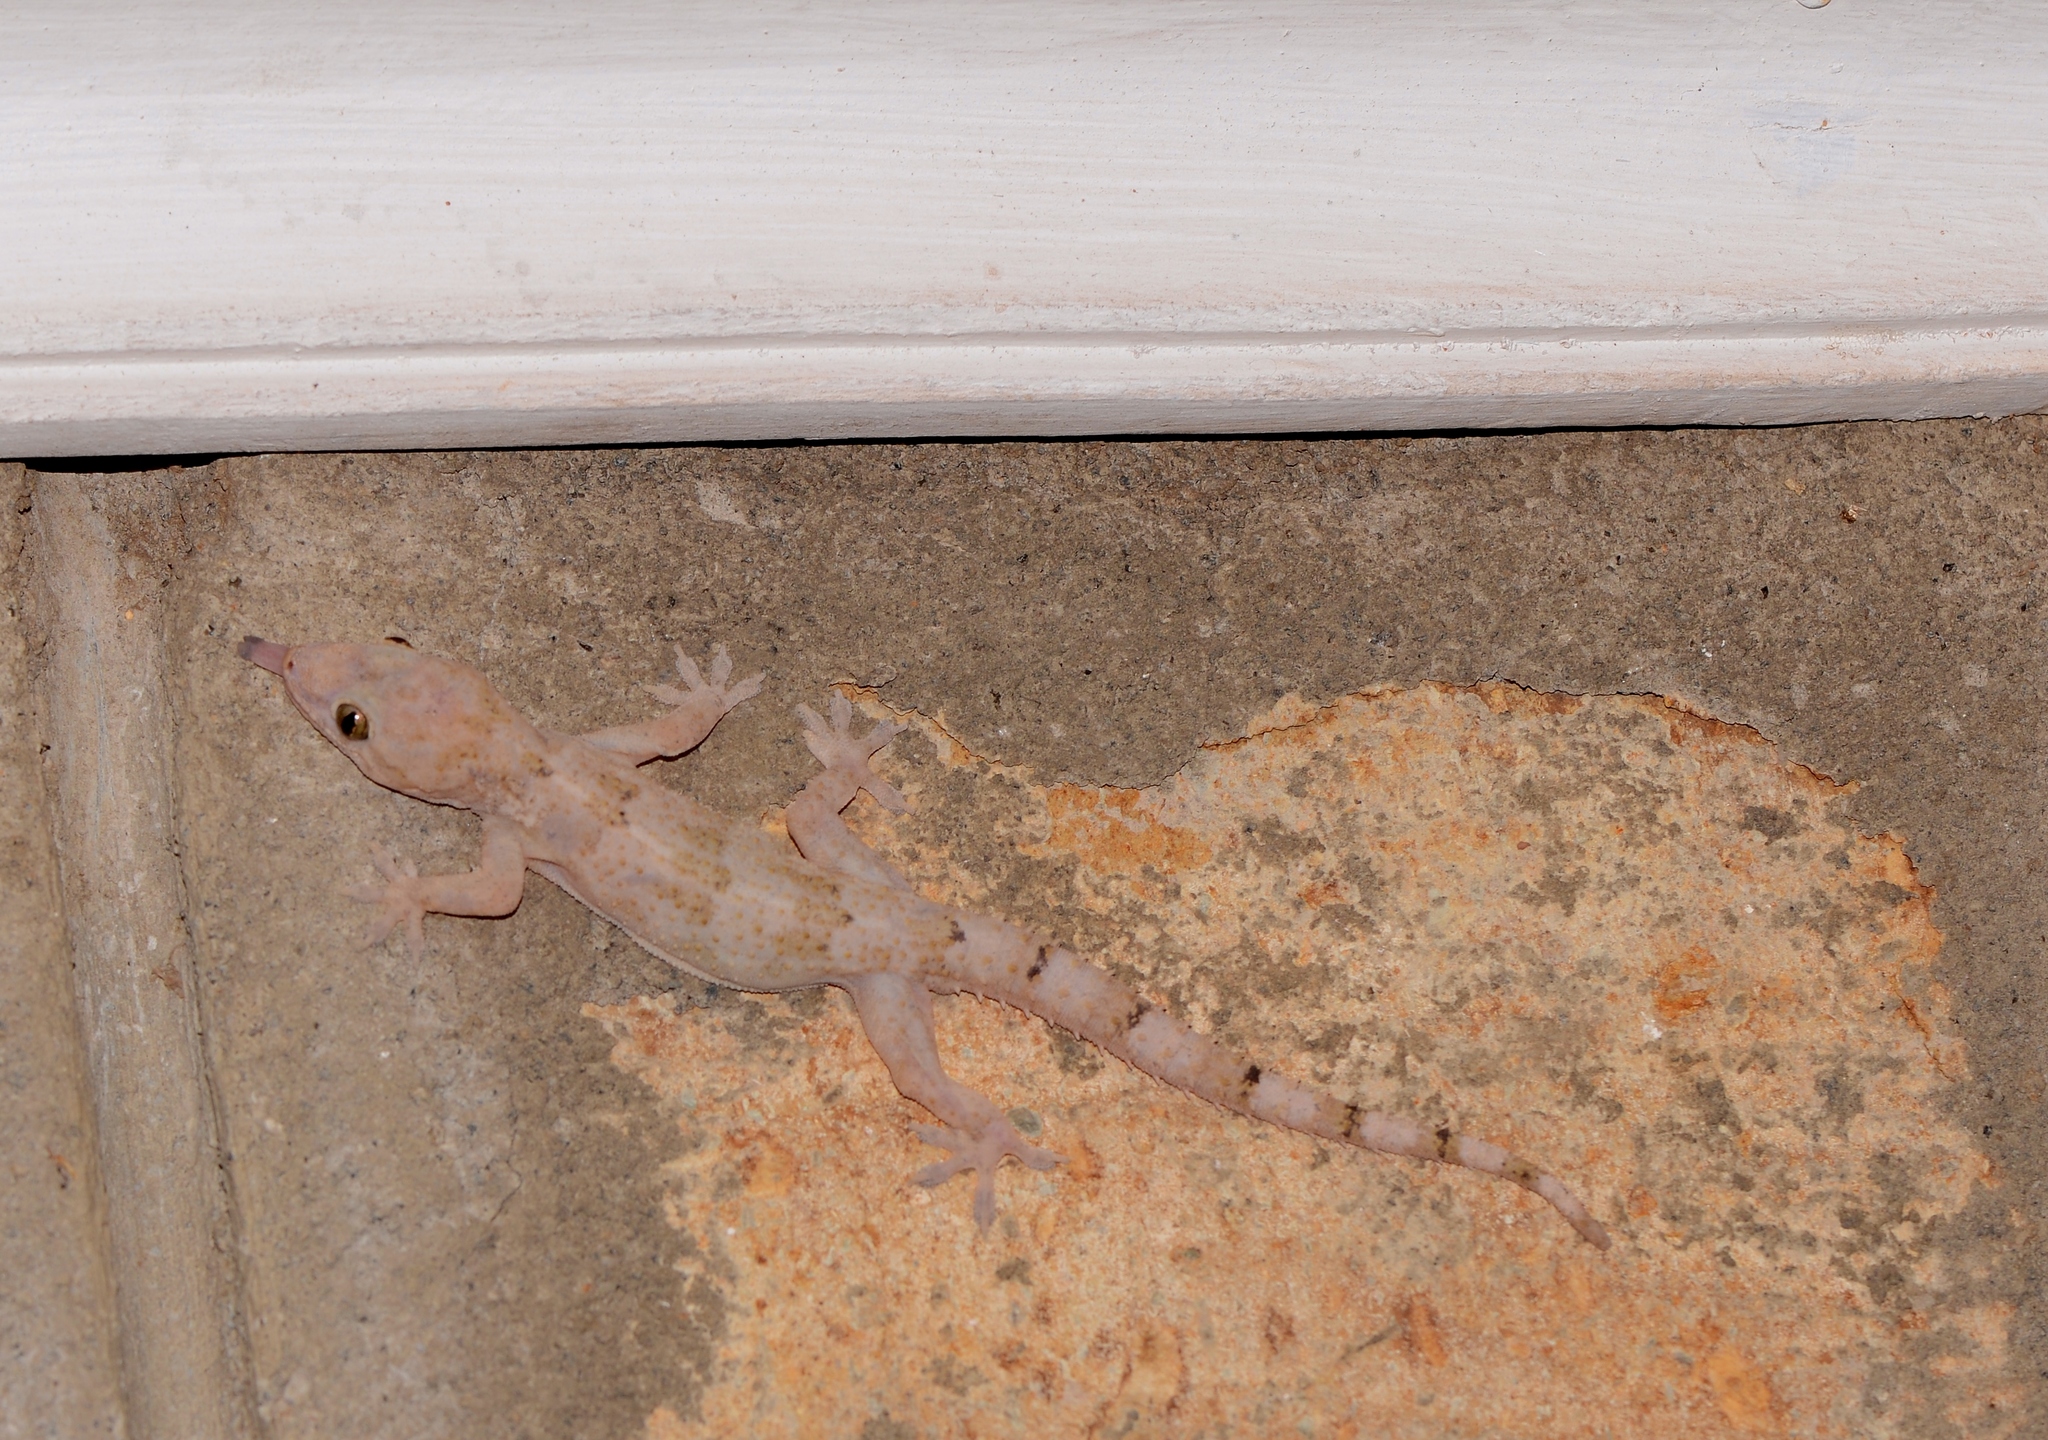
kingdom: Animalia
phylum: Chordata
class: Squamata
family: Gekkonidae
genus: Hemidactylus
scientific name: Hemidactylus mabouia
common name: House gecko
